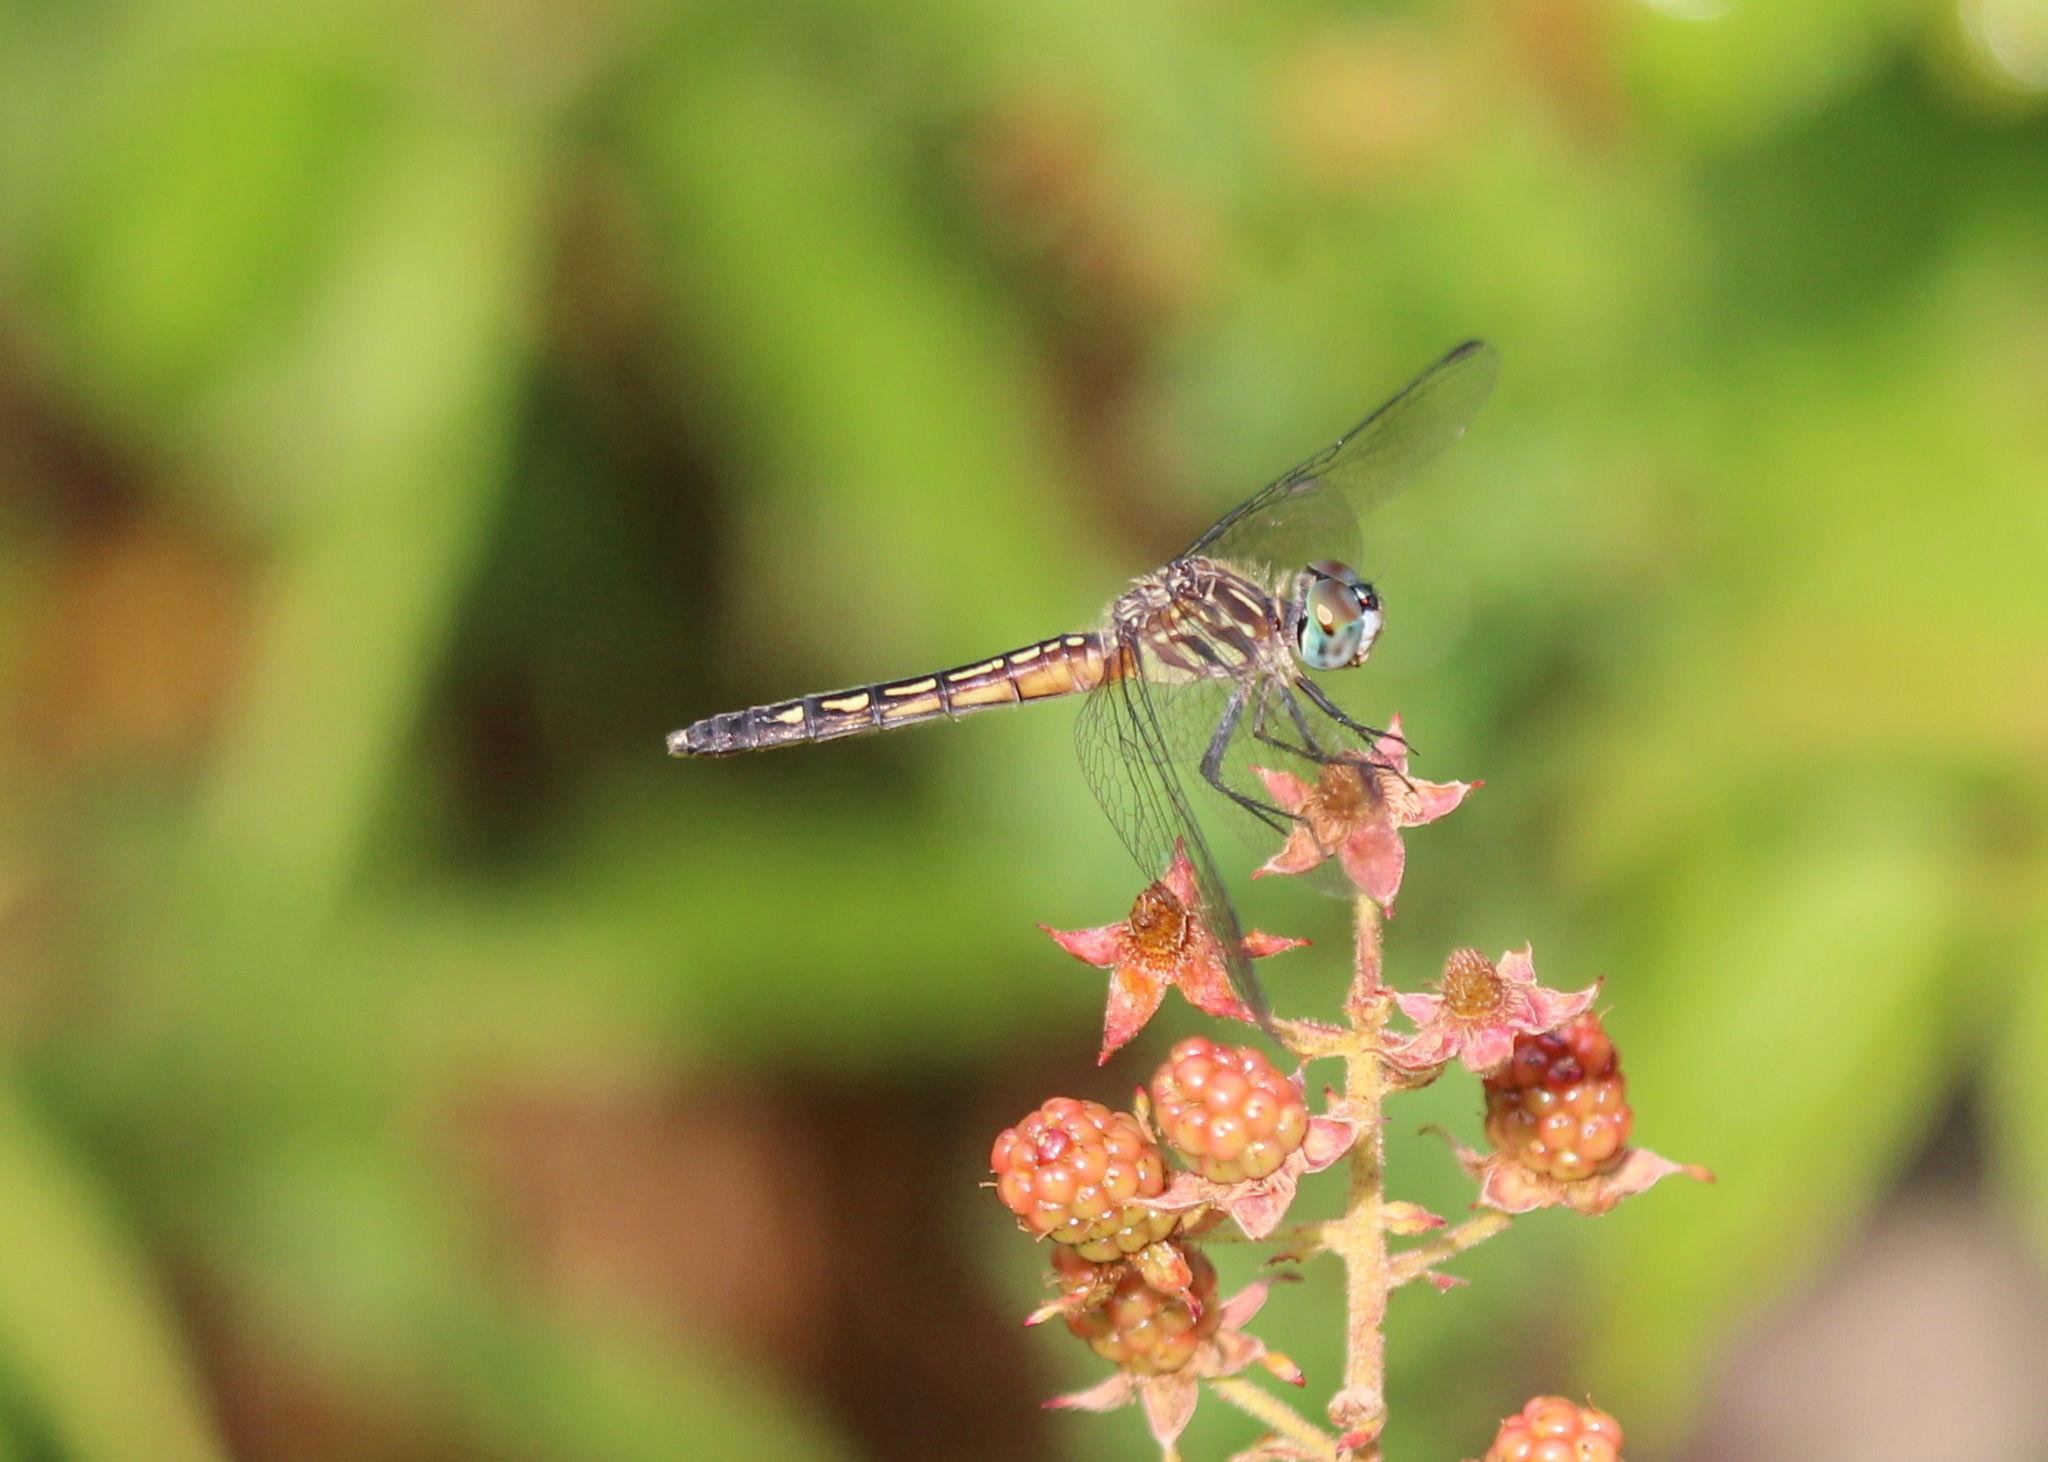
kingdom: Animalia
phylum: Arthropoda
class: Insecta
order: Odonata
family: Libellulidae
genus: Pachydiplax
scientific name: Pachydiplax longipennis
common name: Blue dasher
